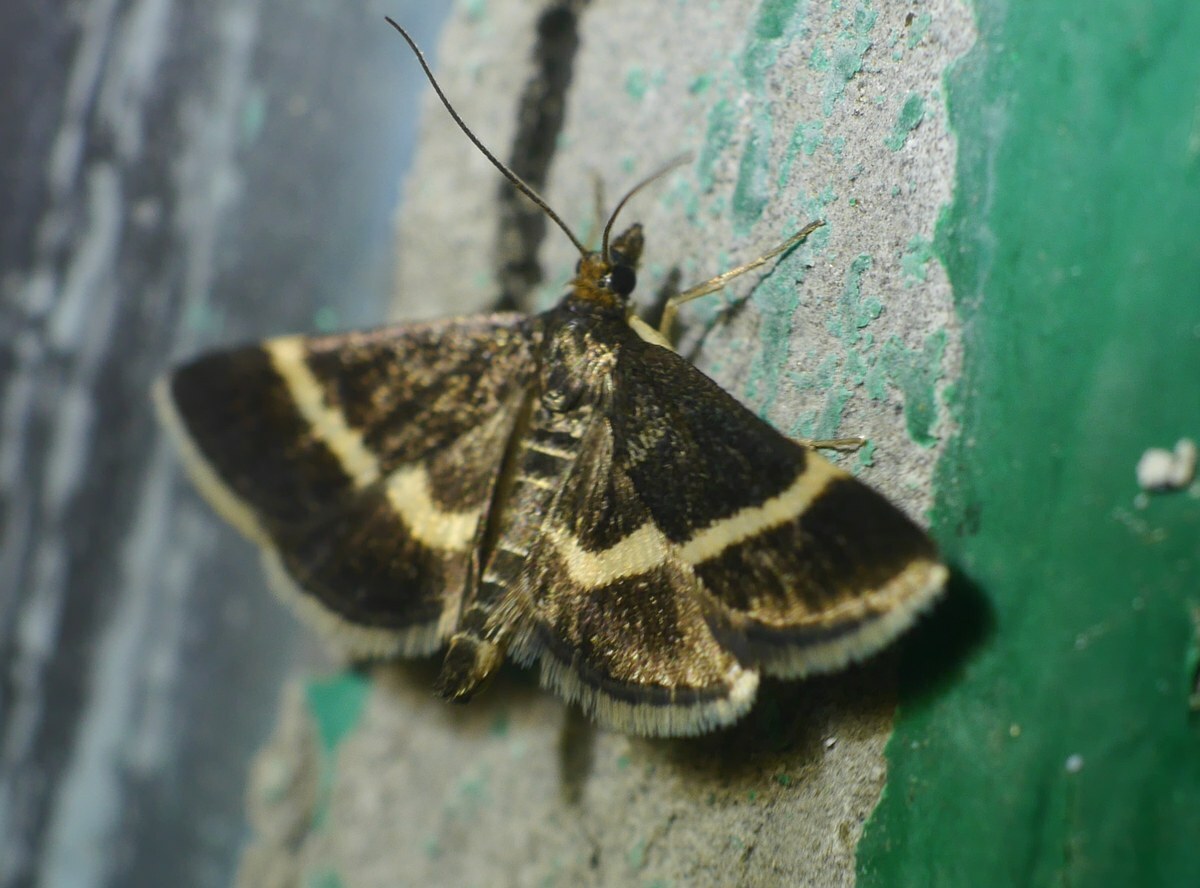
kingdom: Animalia
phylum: Arthropoda
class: Insecta
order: Lepidoptera
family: Crambidae
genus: Pyrausta
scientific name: Pyrausta rectefascialis
